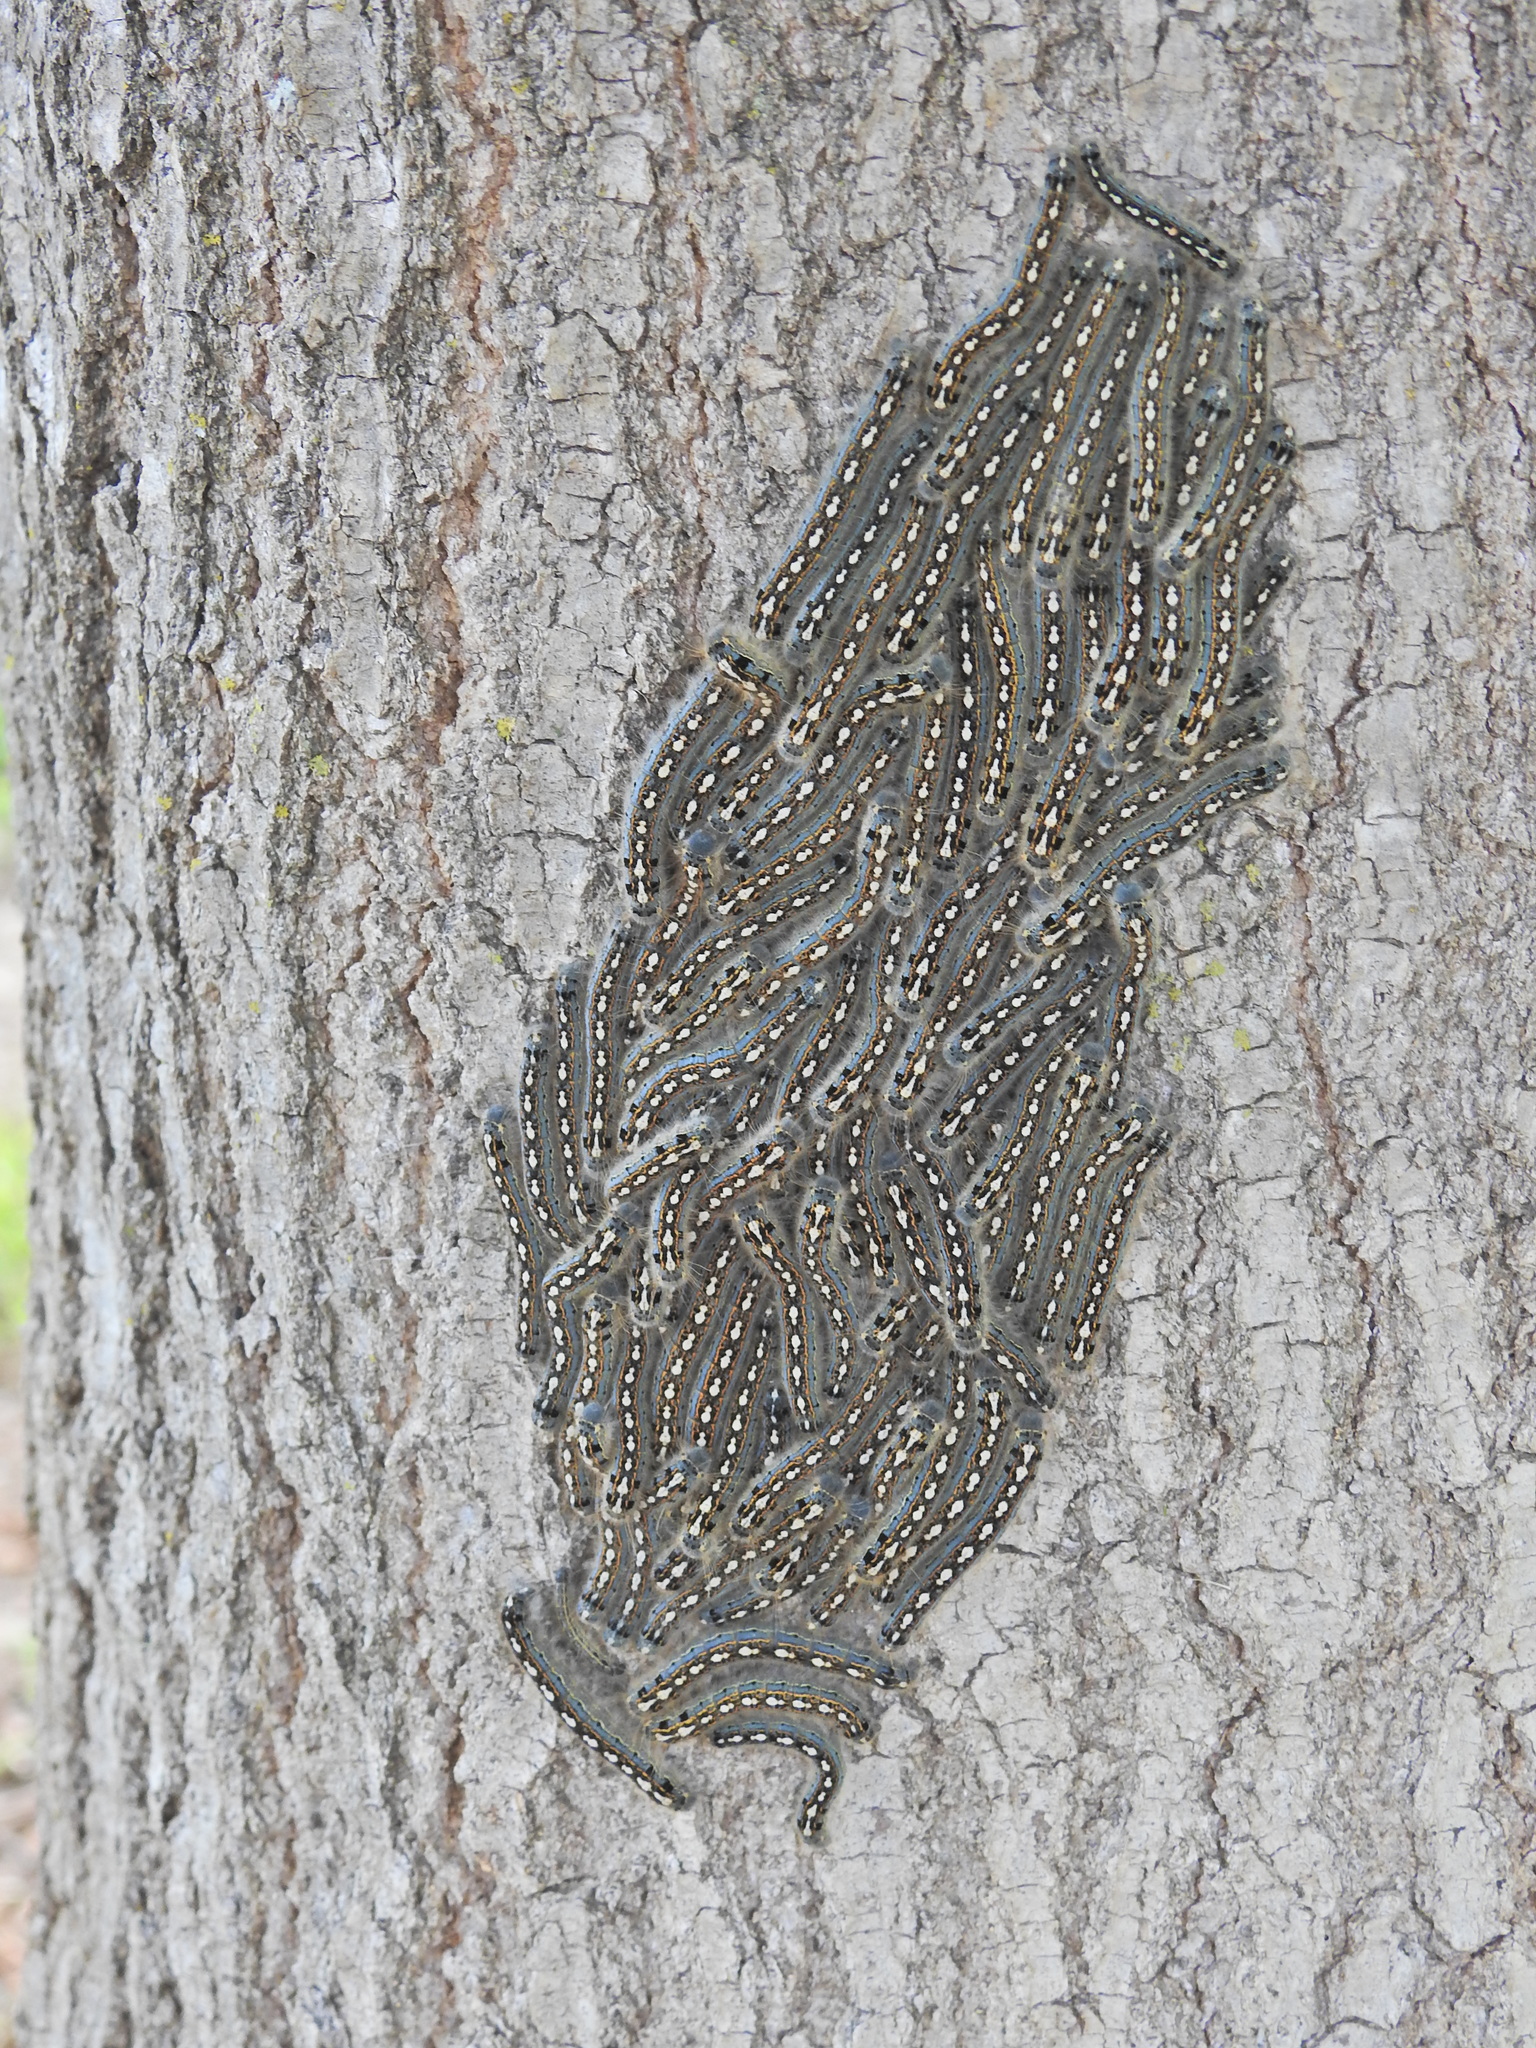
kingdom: Animalia
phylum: Arthropoda
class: Insecta
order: Lepidoptera
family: Lasiocampidae
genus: Malacosoma
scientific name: Malacosoma disstria
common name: Forest tent caterpillar
